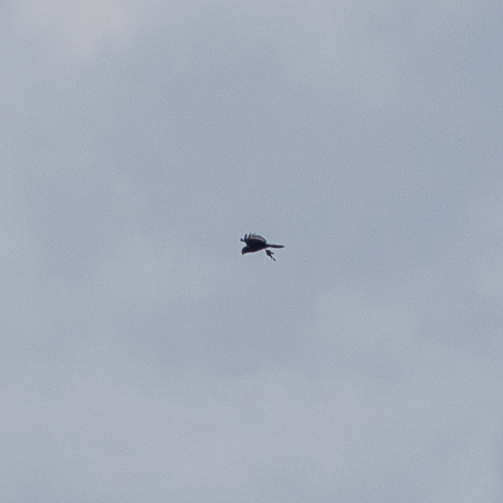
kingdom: Animalia
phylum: Chordata
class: Aves
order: Accipitriformes
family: Accipitridae
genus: Circus
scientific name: Circus aeruginosus
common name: Western marsh harrier
